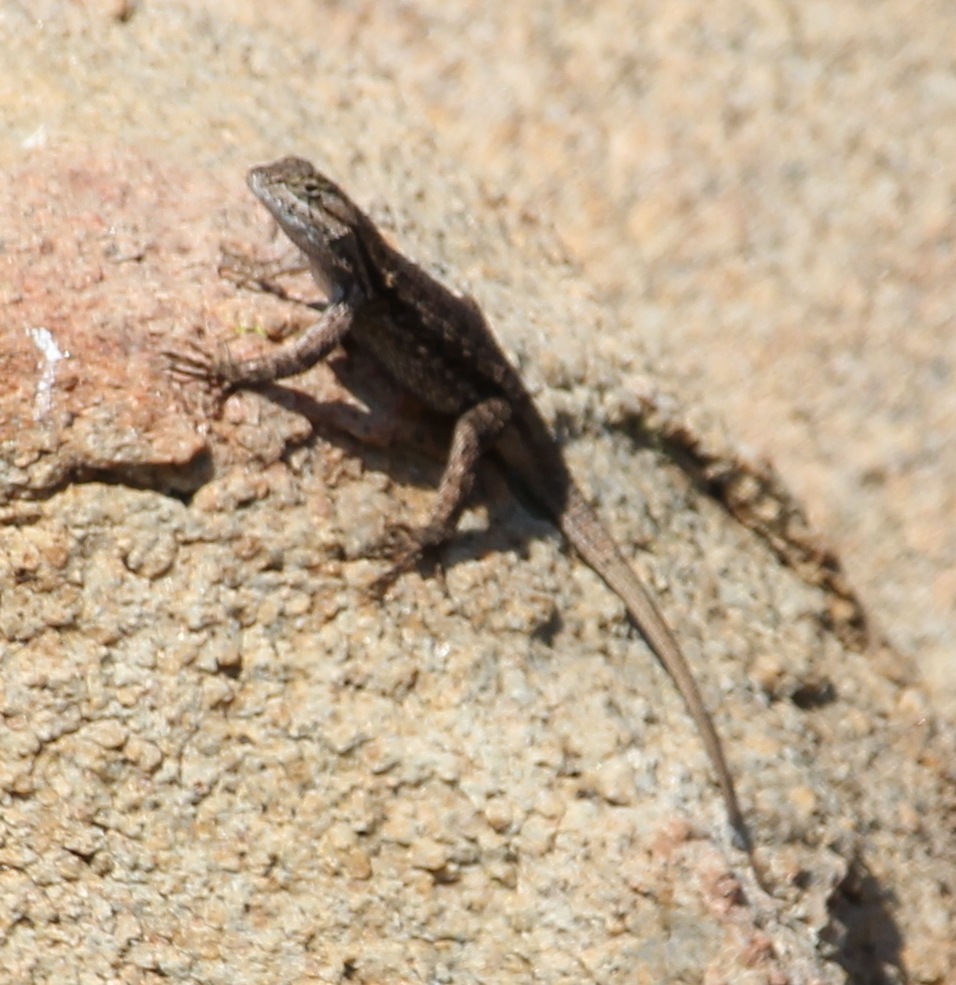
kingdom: Animalia
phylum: Chordata
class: Squamata
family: Phrynosomatidae
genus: Sceloporus
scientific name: Sceloporus occidentalis
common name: Western fence lizard
